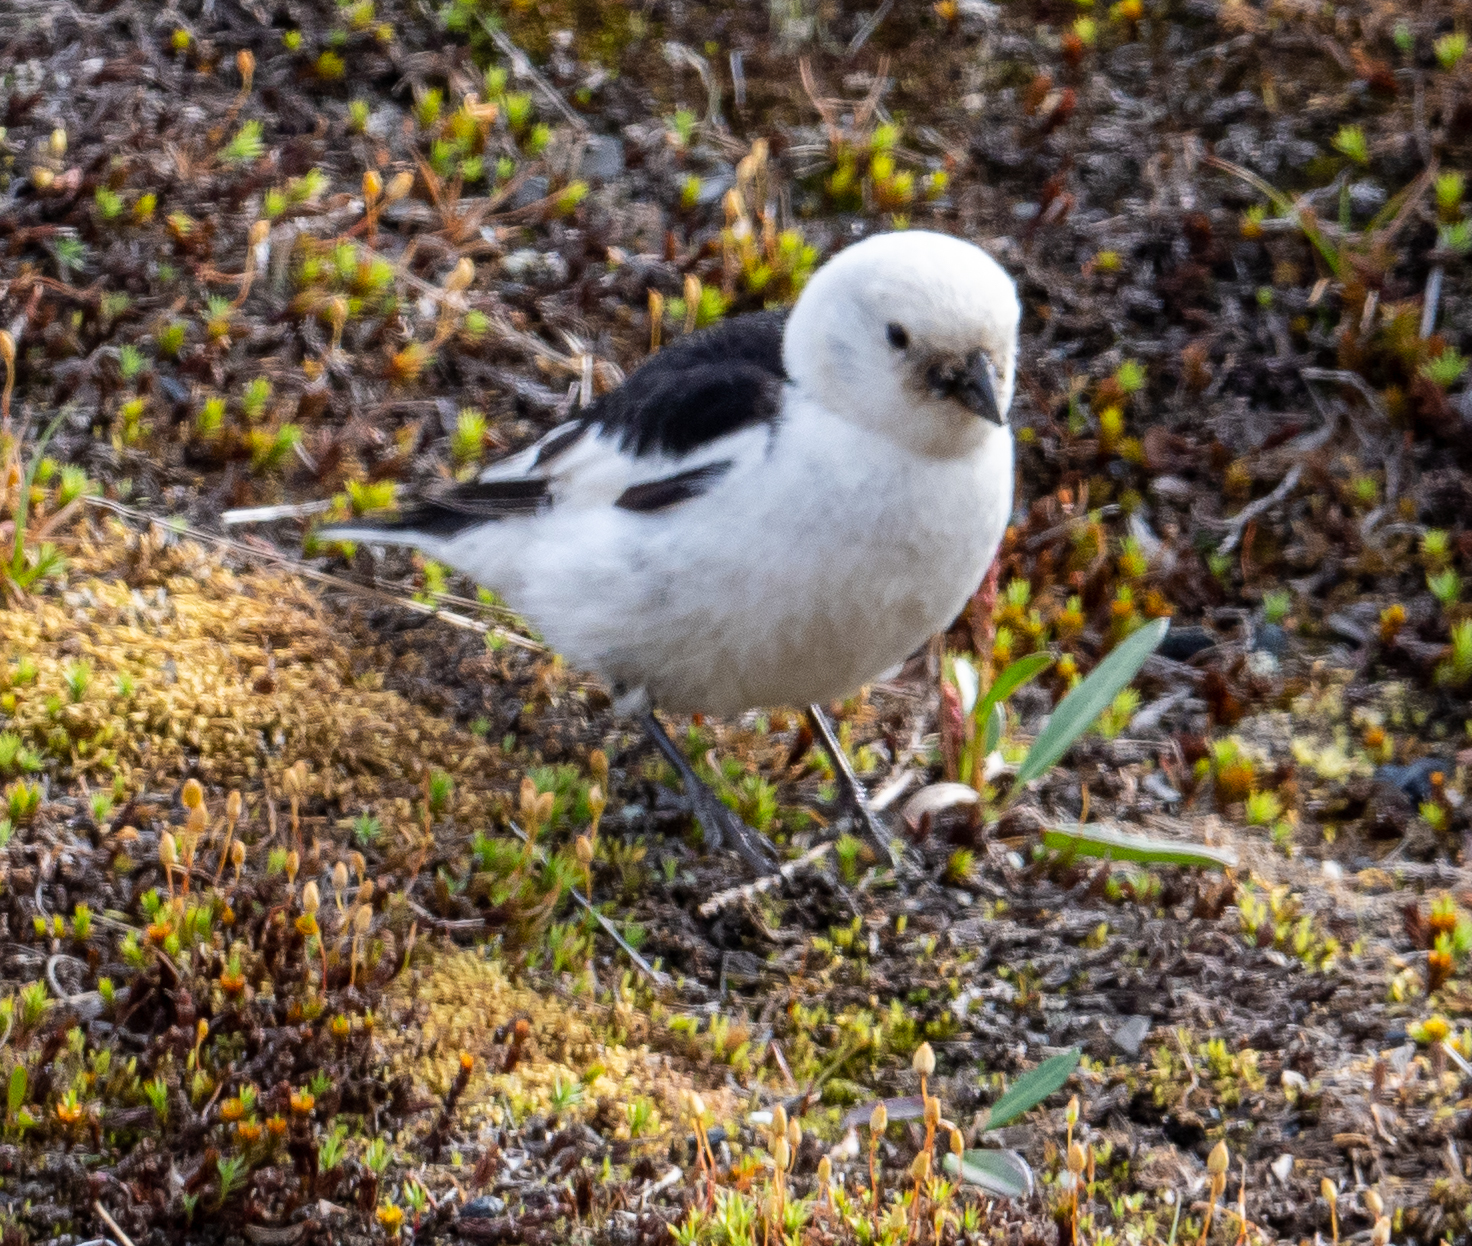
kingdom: Animalia
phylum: Chordata
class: Aves
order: Passeriformes
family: Calcariidae
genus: Plectrophenax
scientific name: Plectrophenax nivalis
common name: Snow bunting
